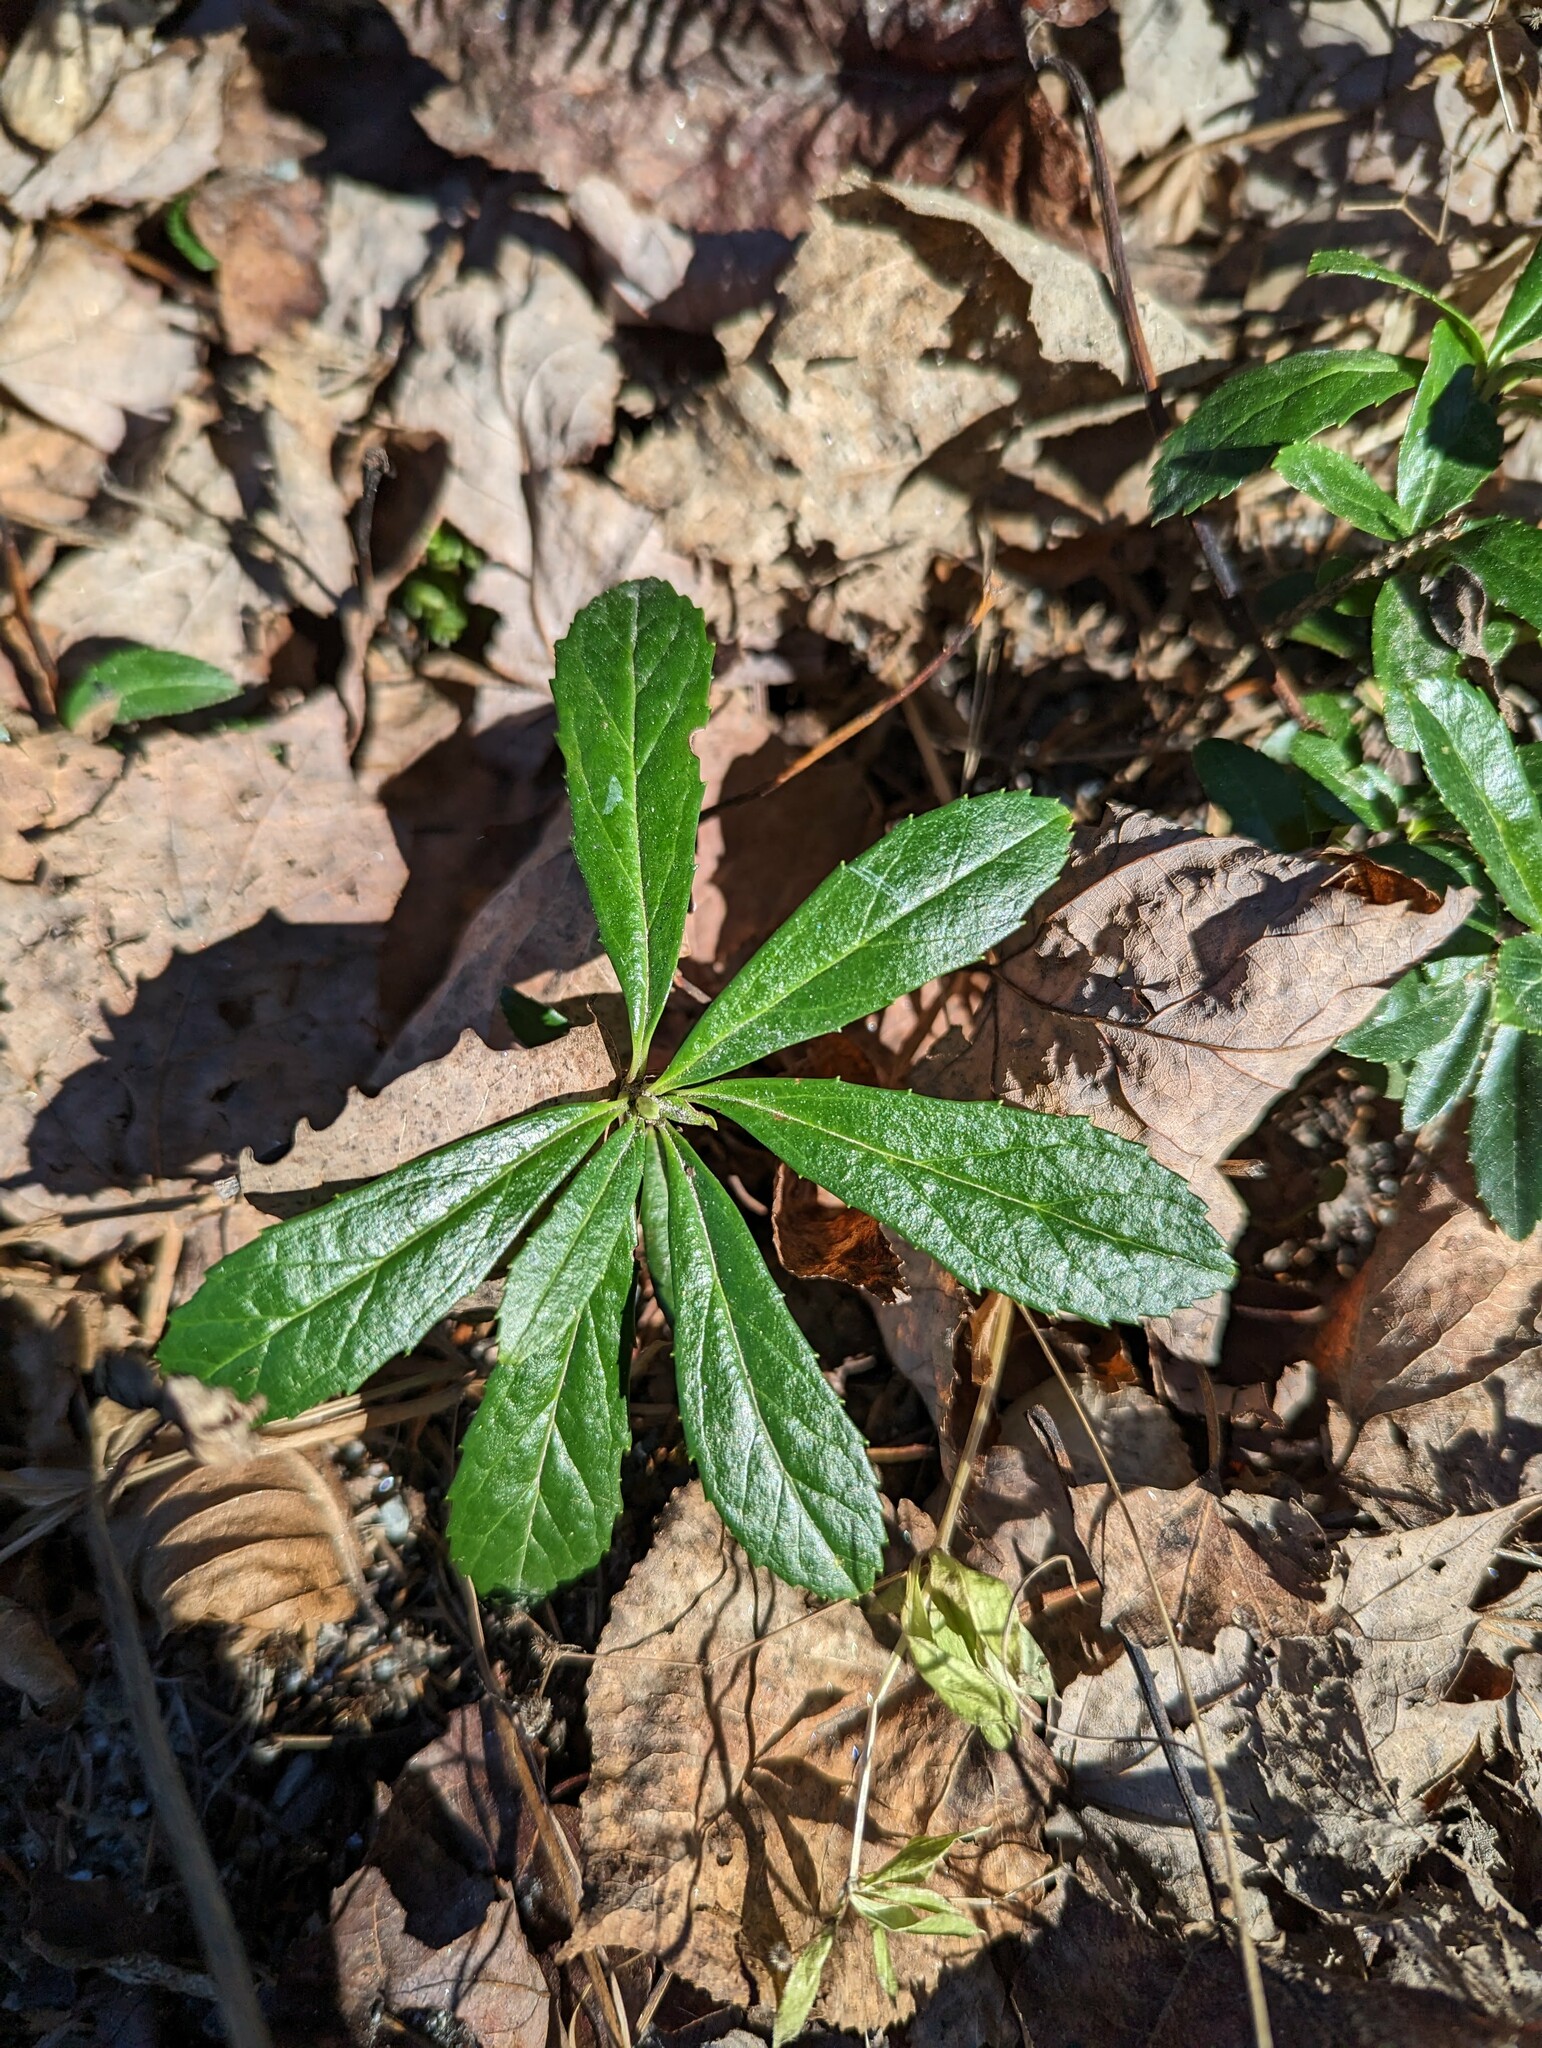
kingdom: Plantae
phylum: Tracheophyta
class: Magnoliopsida
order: Ericales
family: Ericaceae
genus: Chimaphila
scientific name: Chimaphila umbellata
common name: Pipsissewa
